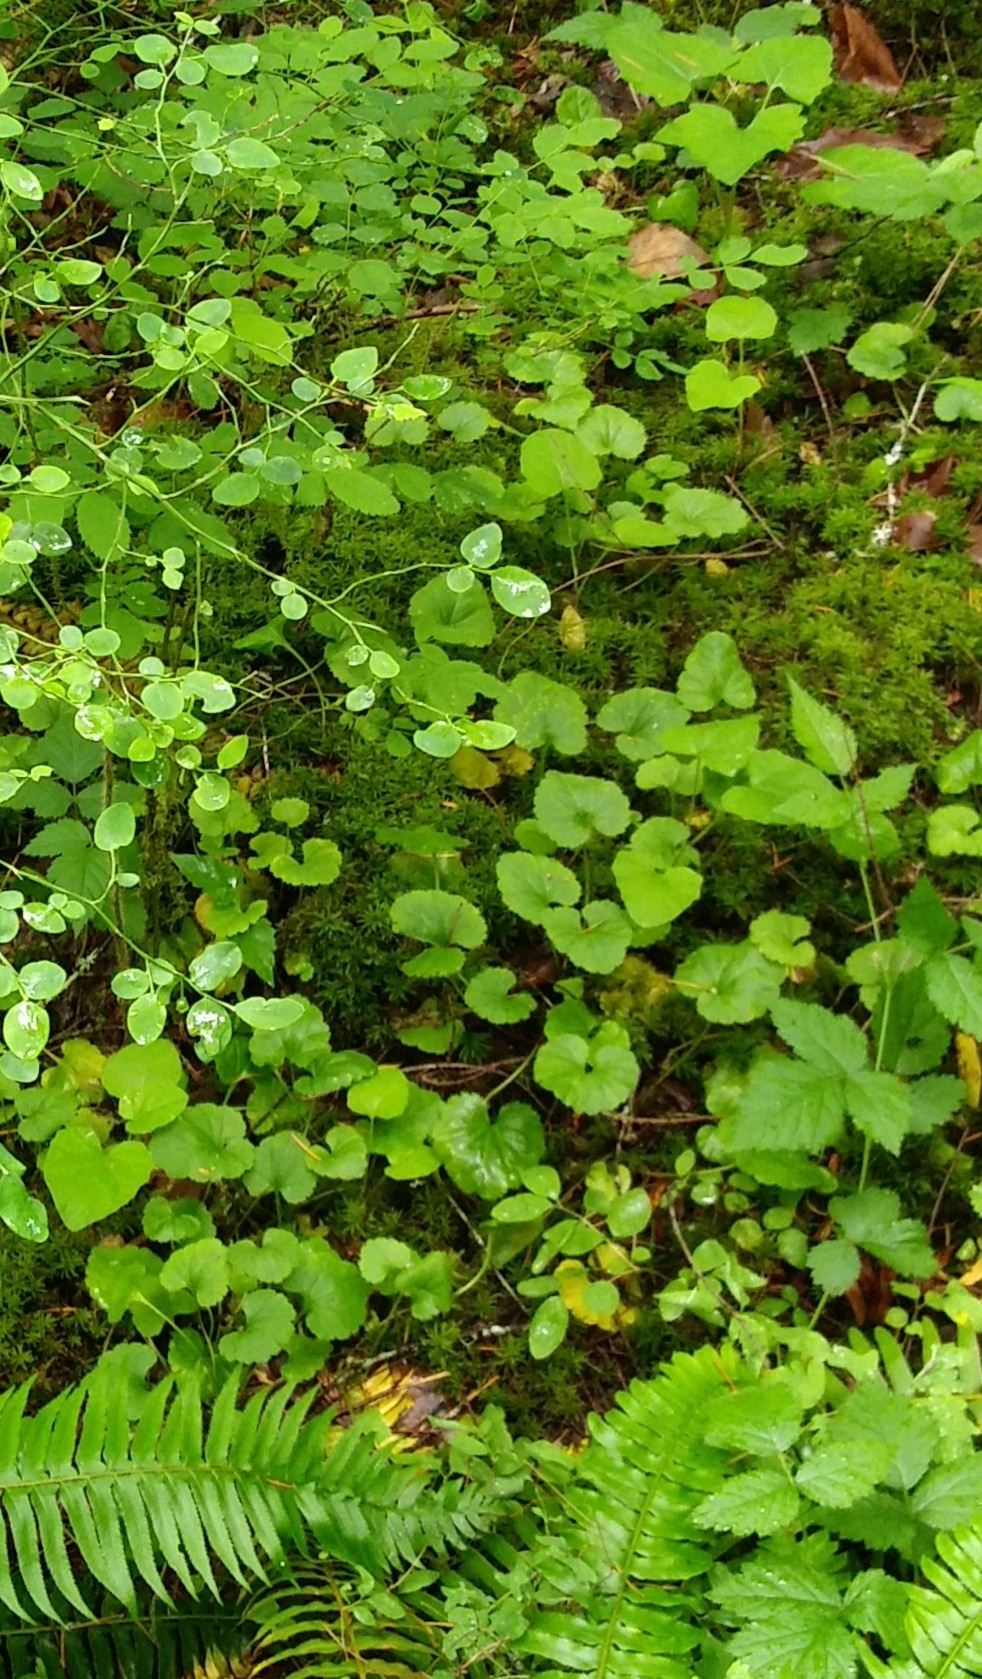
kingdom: Plantae
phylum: Tracheophyta
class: Magnoliopsida
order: Lamiales
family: Plantaginaceae
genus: Synthyris
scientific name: Synthyris reniformis
